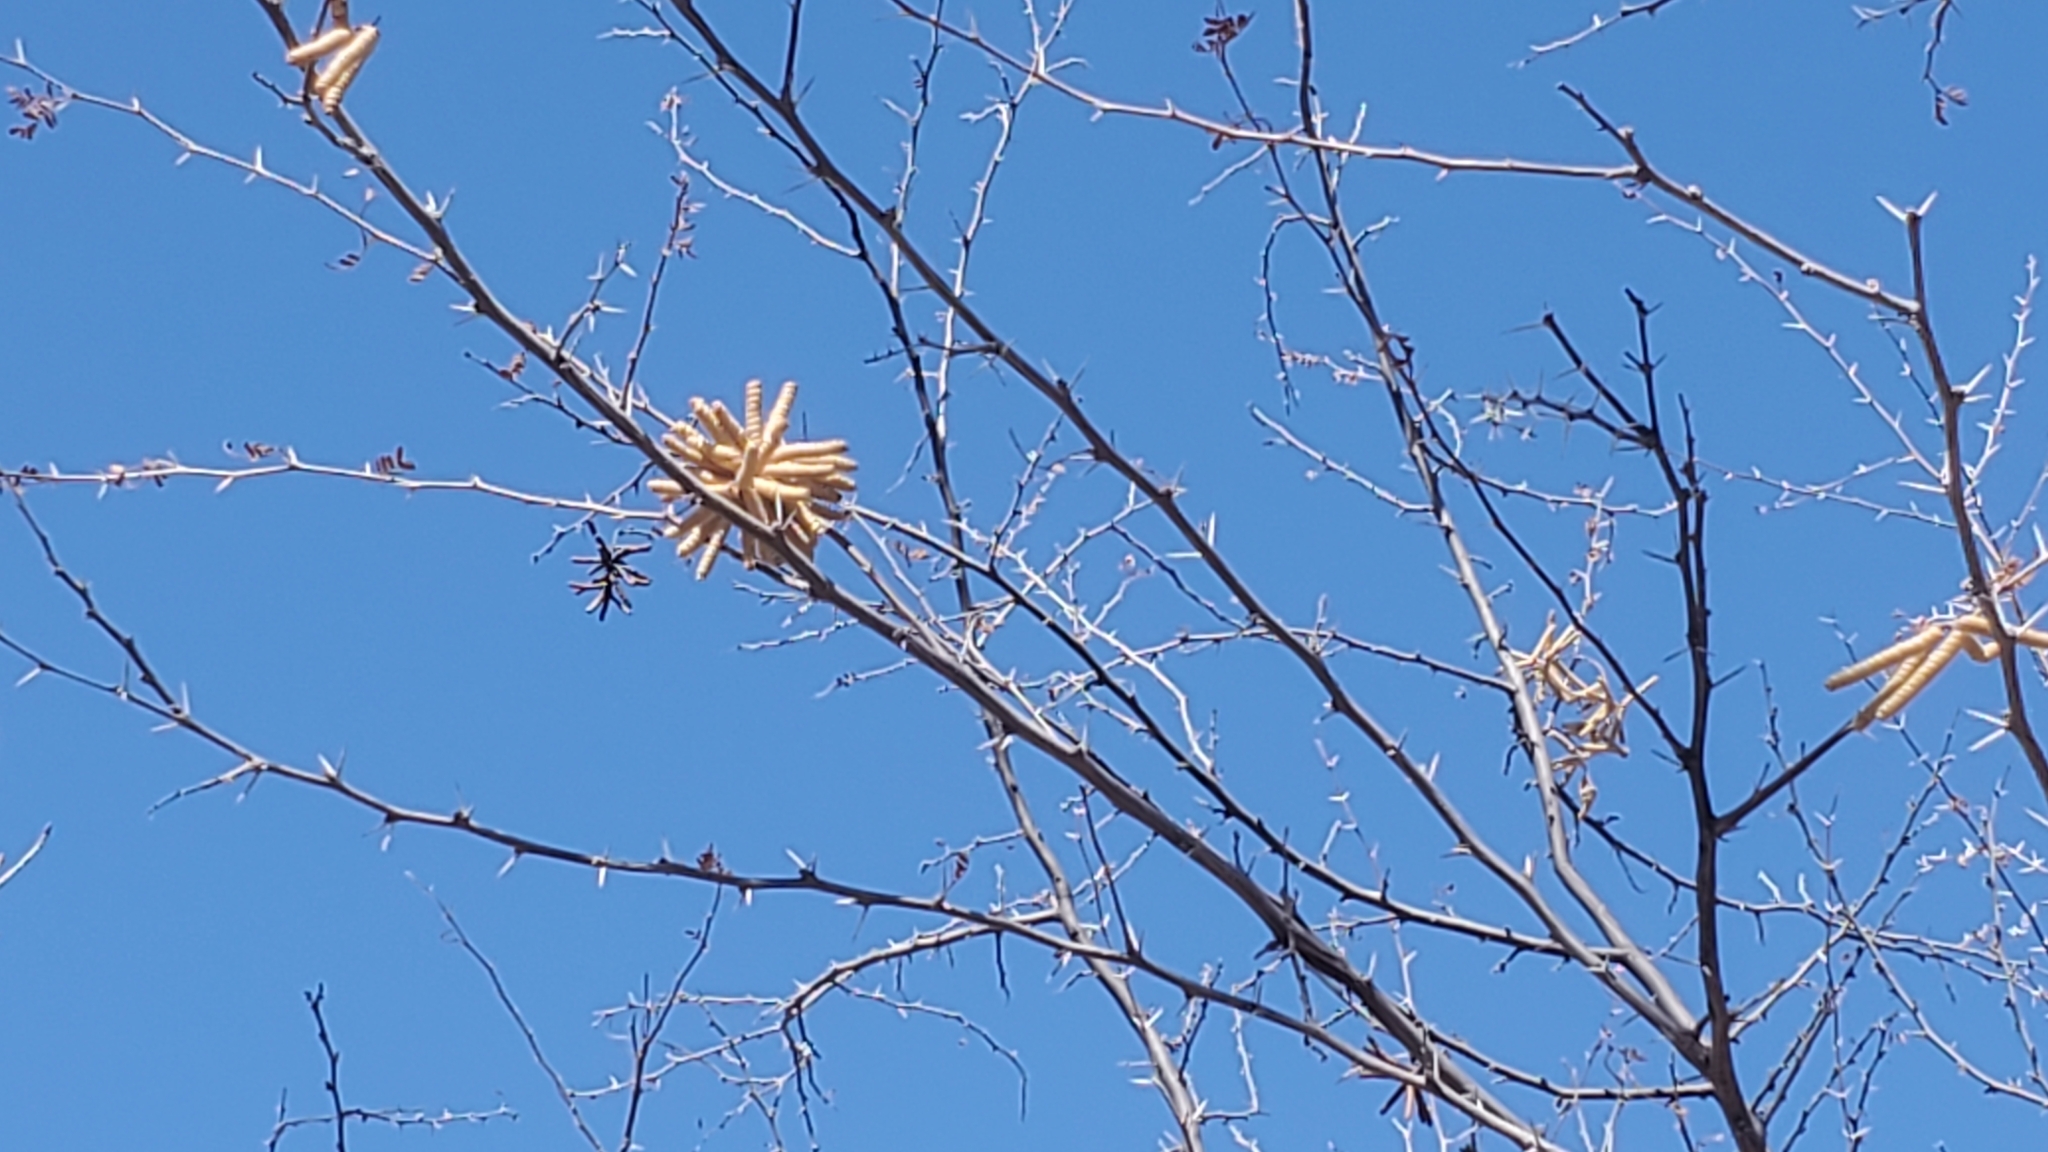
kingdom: Plantae
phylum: Tracheophyta
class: Magnoliopsida
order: Fabales
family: Fabaceae
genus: Prosopis
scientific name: Prosopis pubescens
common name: Screw-bean
